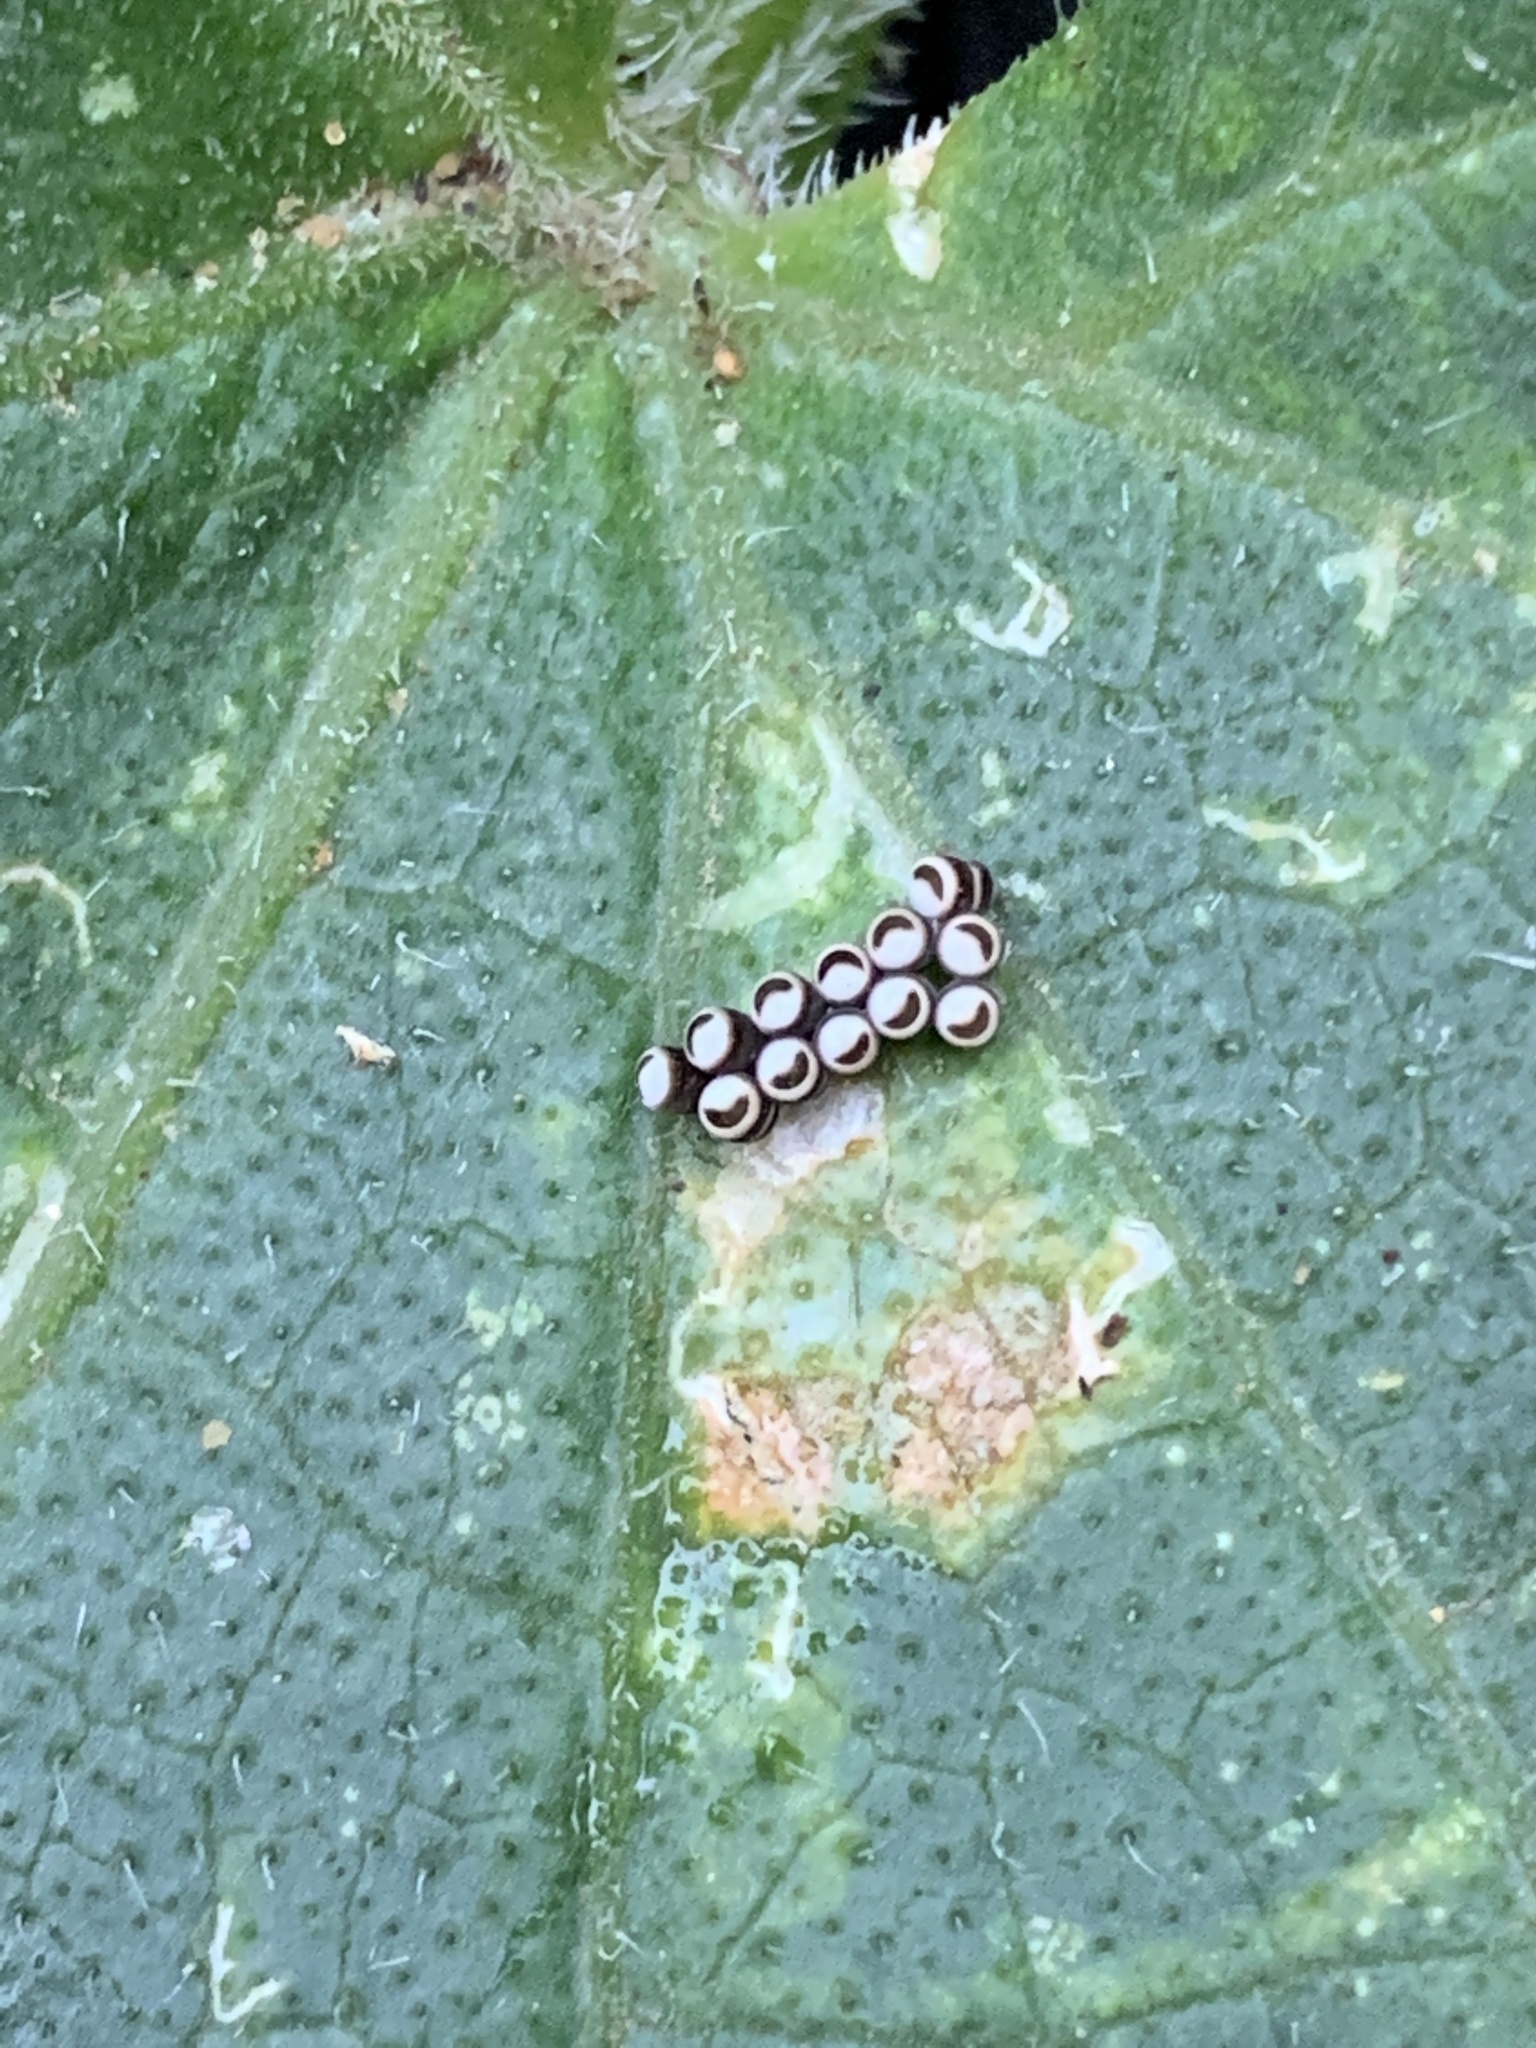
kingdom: Animalia
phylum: Arthropoda
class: Insecta
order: Hemiptera
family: Pentatomidae
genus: Murgantia
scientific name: Murgantia histrionica
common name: Harlequin bug
